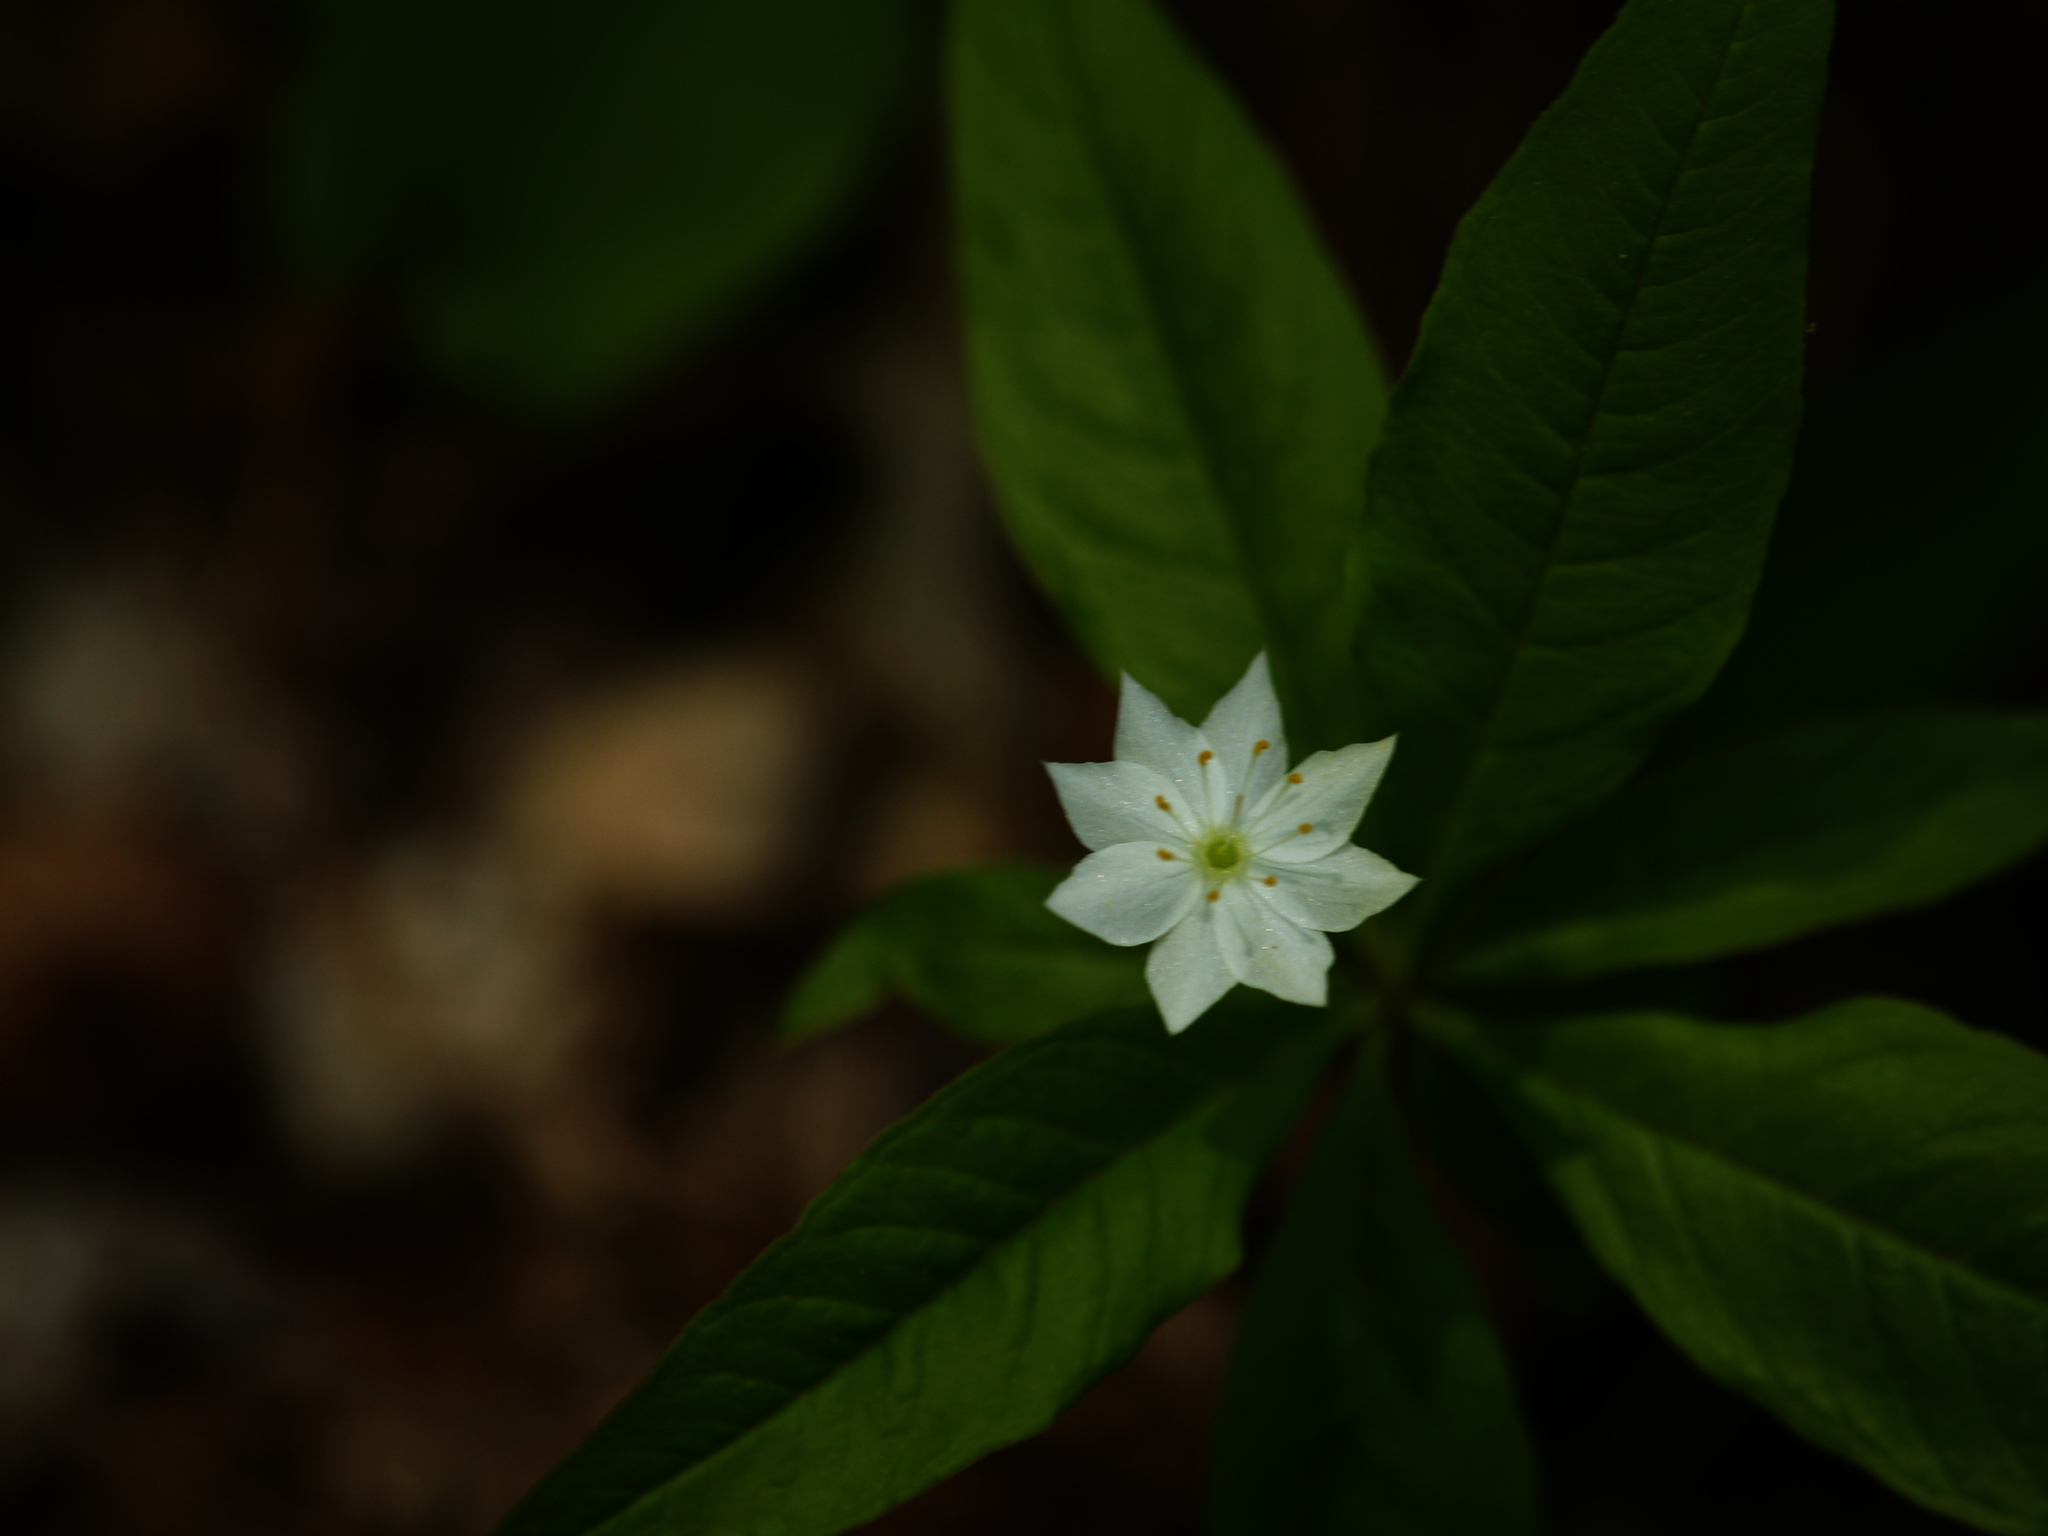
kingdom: Plantae
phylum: Tracheophyta
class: Magnoliopsida
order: Ericales
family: Primulaceae
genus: Lysimachia
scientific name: Lysimachia borealis
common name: American starflower
